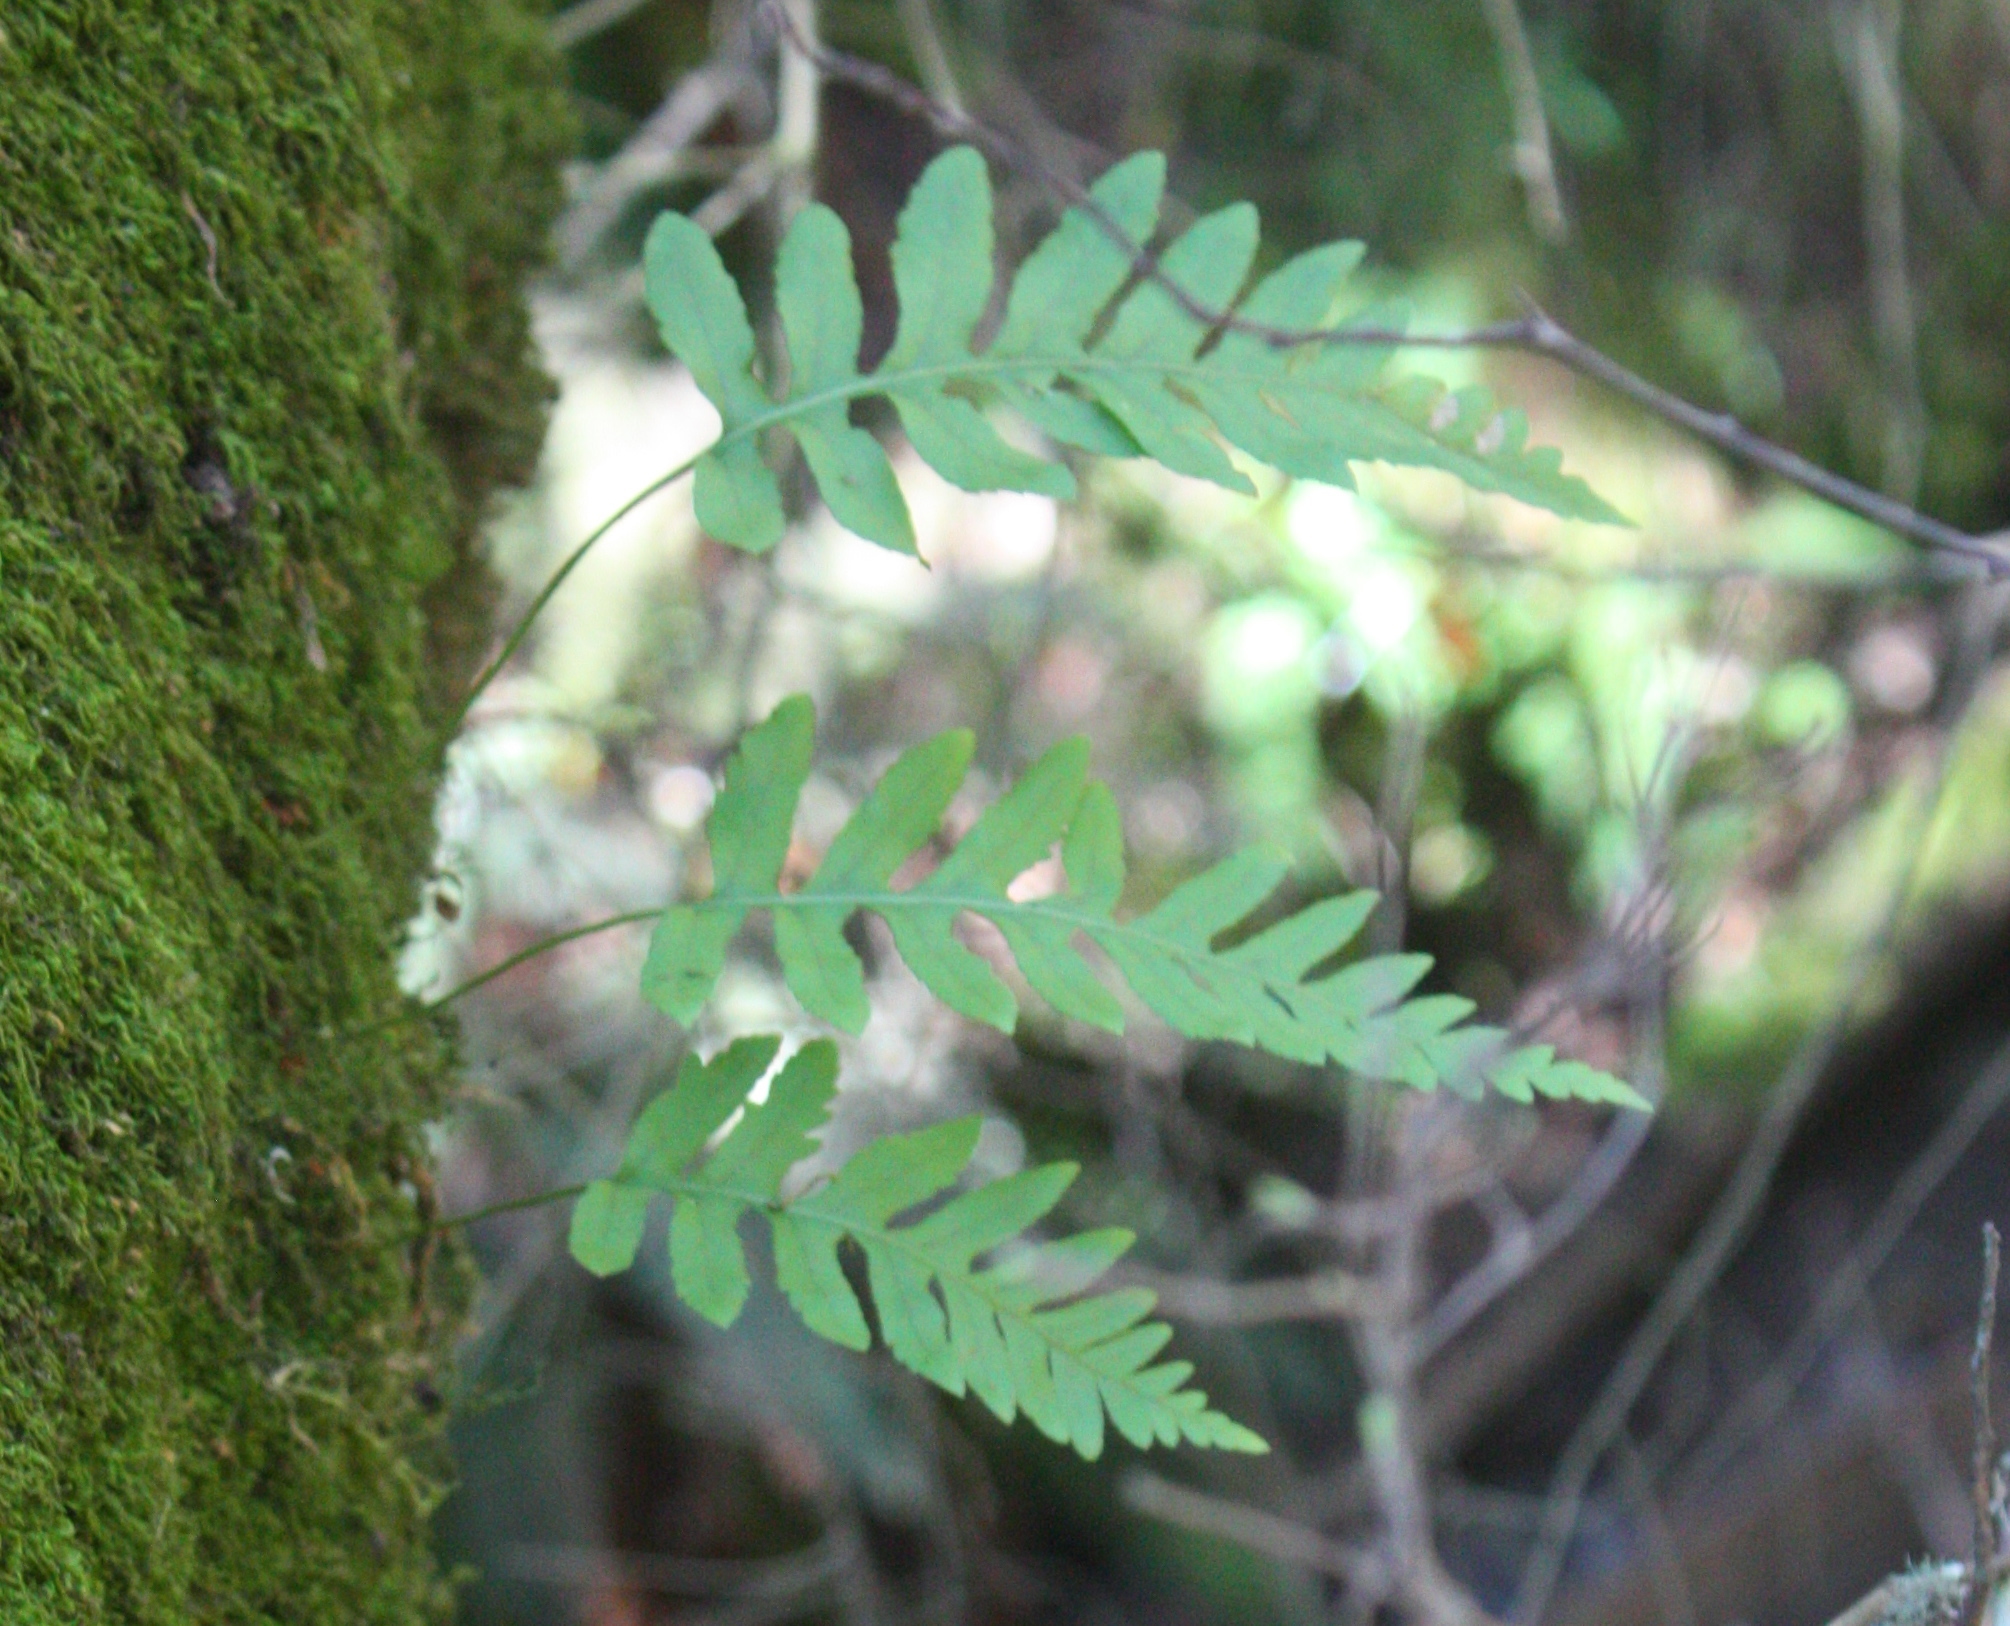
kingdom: Plantae
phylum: Tracheophyta
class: Polypodiopsida
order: Polypodiales
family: Polypodiaceae
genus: Polypodium
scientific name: Polypodium californicum
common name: California polypody
